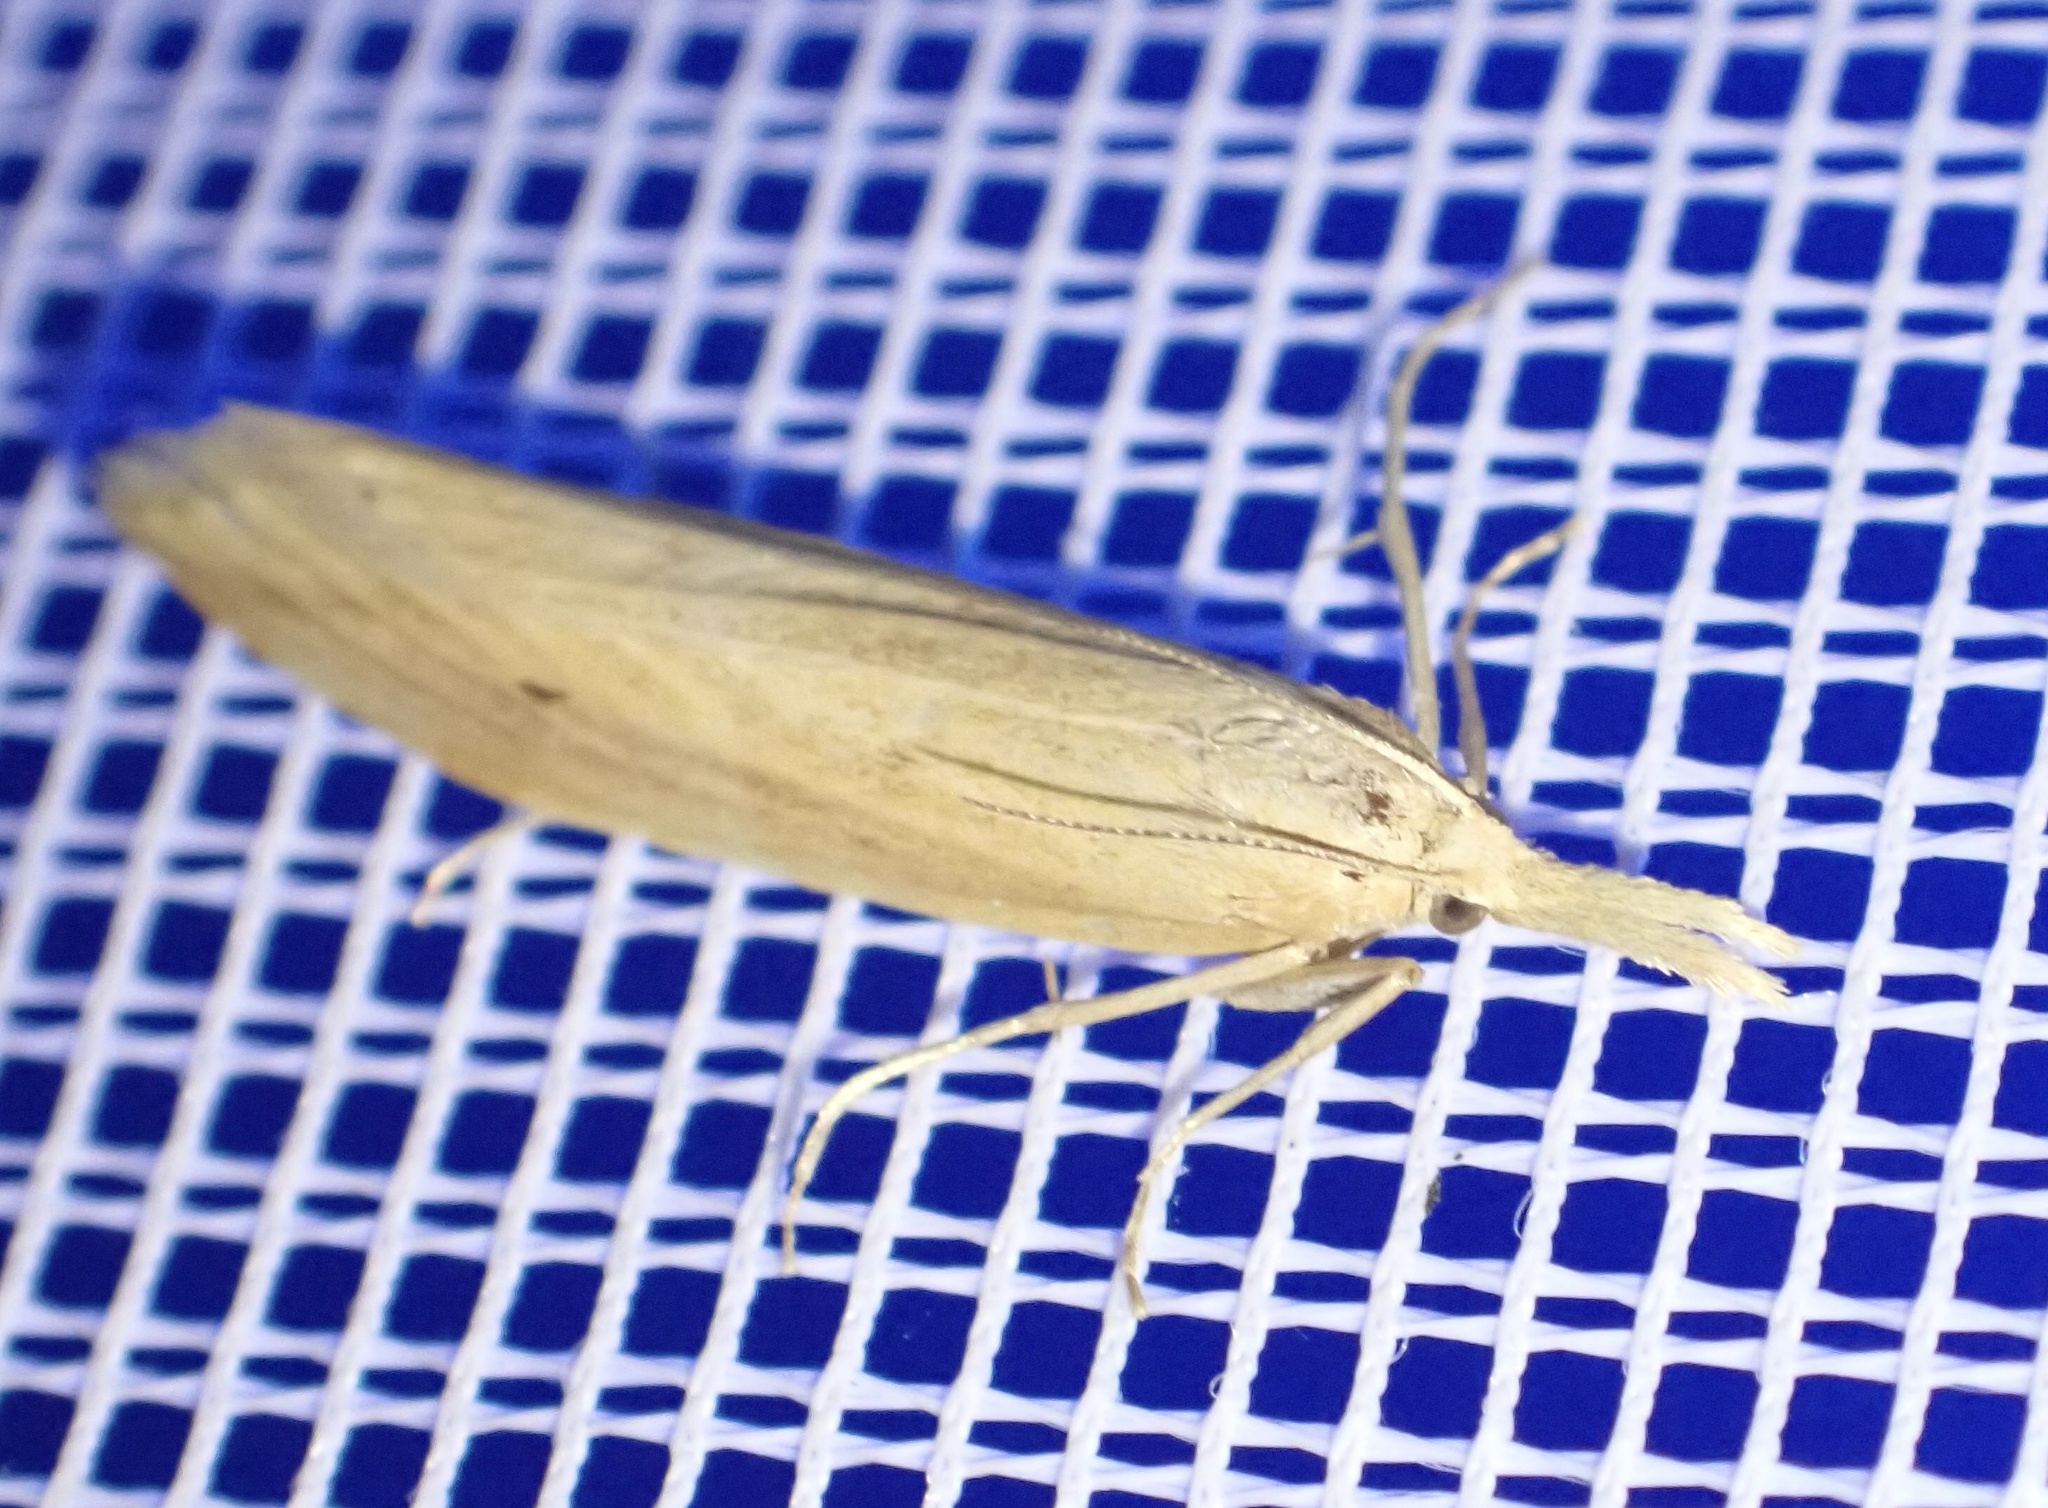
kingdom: Animalia
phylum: Arthropoda
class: Insecta
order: Lepidoptera
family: Crambidae
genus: Chilo
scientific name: Chilo phragmitella
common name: Reed veneer
